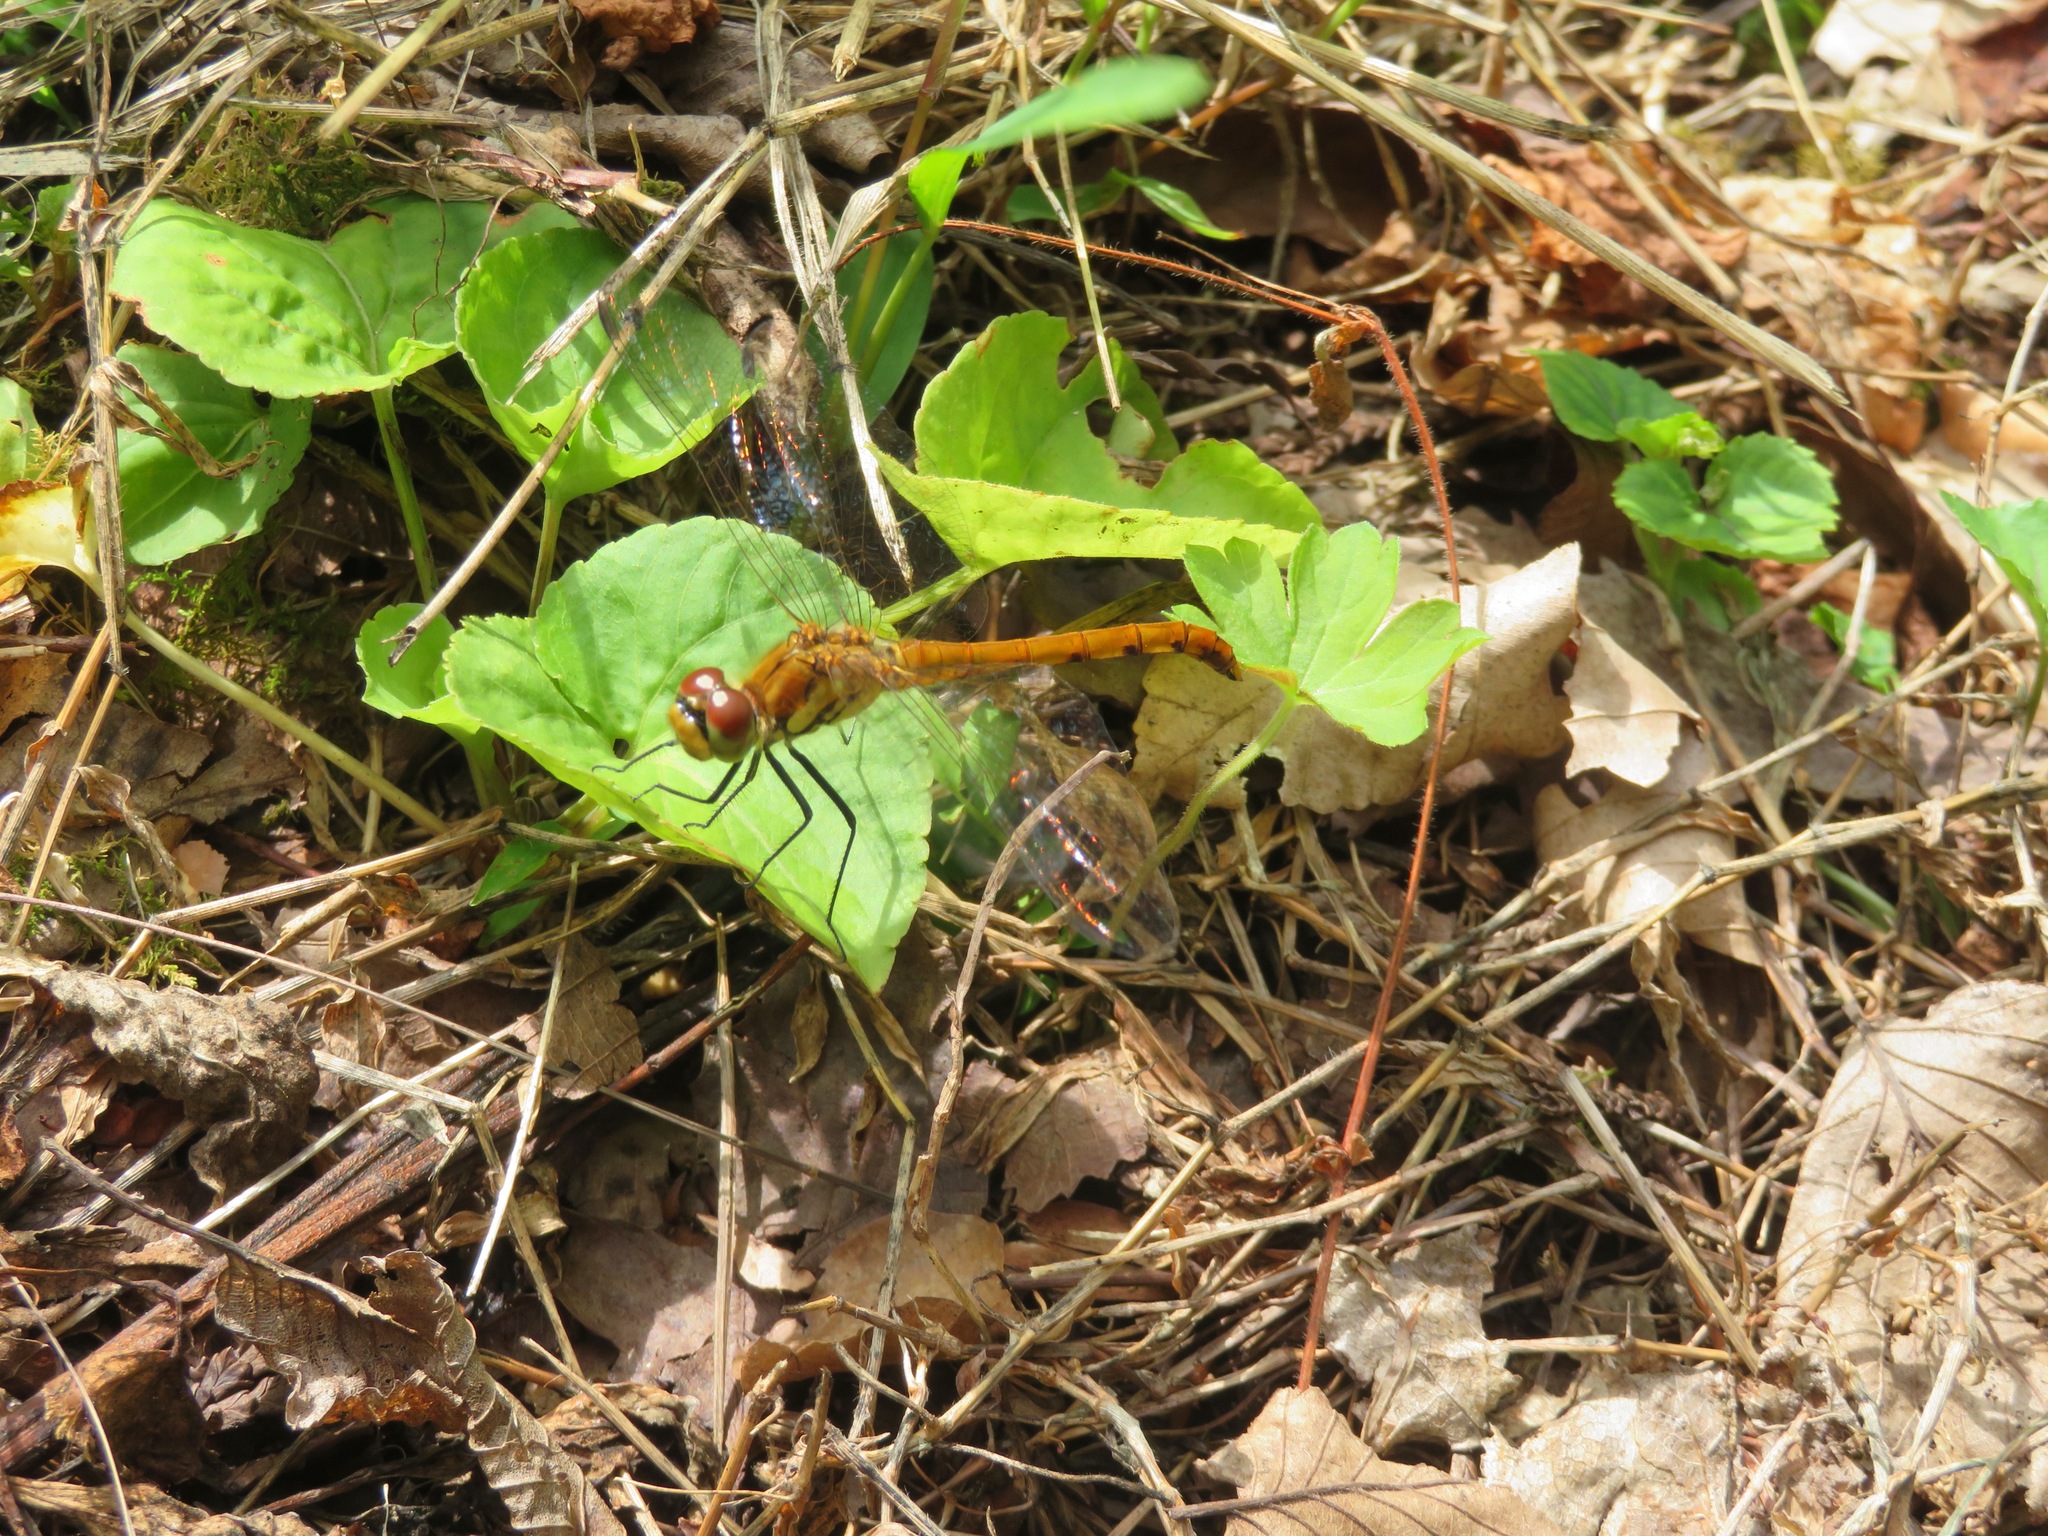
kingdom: Animalia
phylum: Arthropoda
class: Insecta
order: Odonata
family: Libellulidae
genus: Sympetrum
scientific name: Sympetrum frequens
